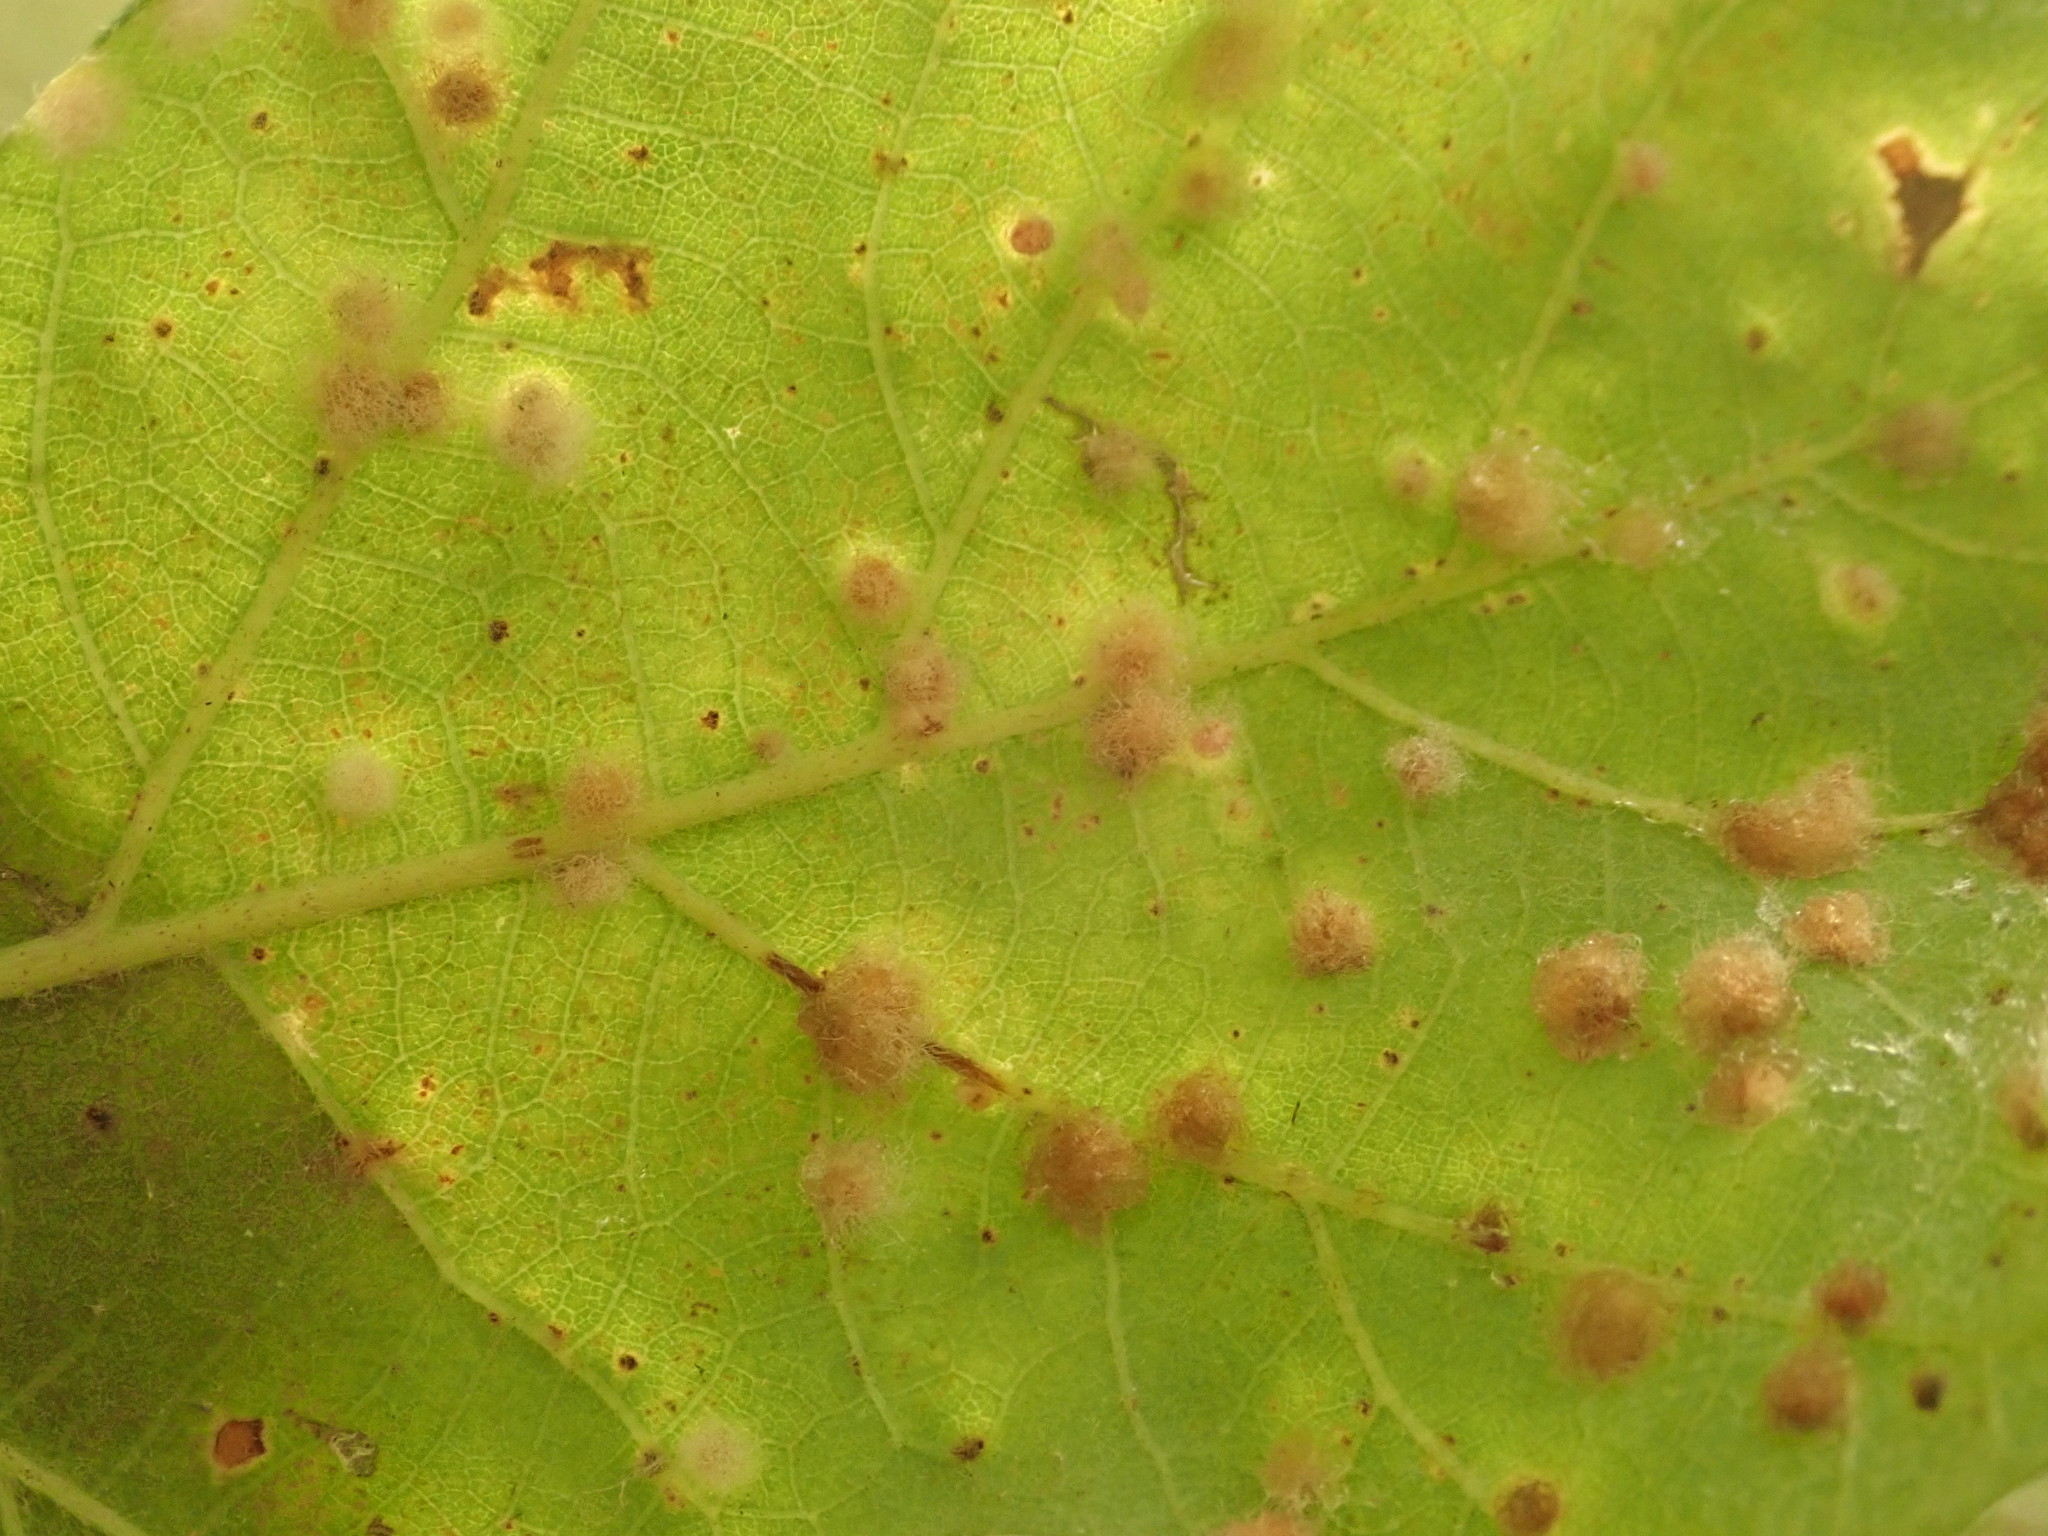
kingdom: Animalia
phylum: Arthropoda
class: Insecta
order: Hymenoptera
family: Cynipidae
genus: Neuroterus
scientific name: Neuroterus quercusverrucarum
